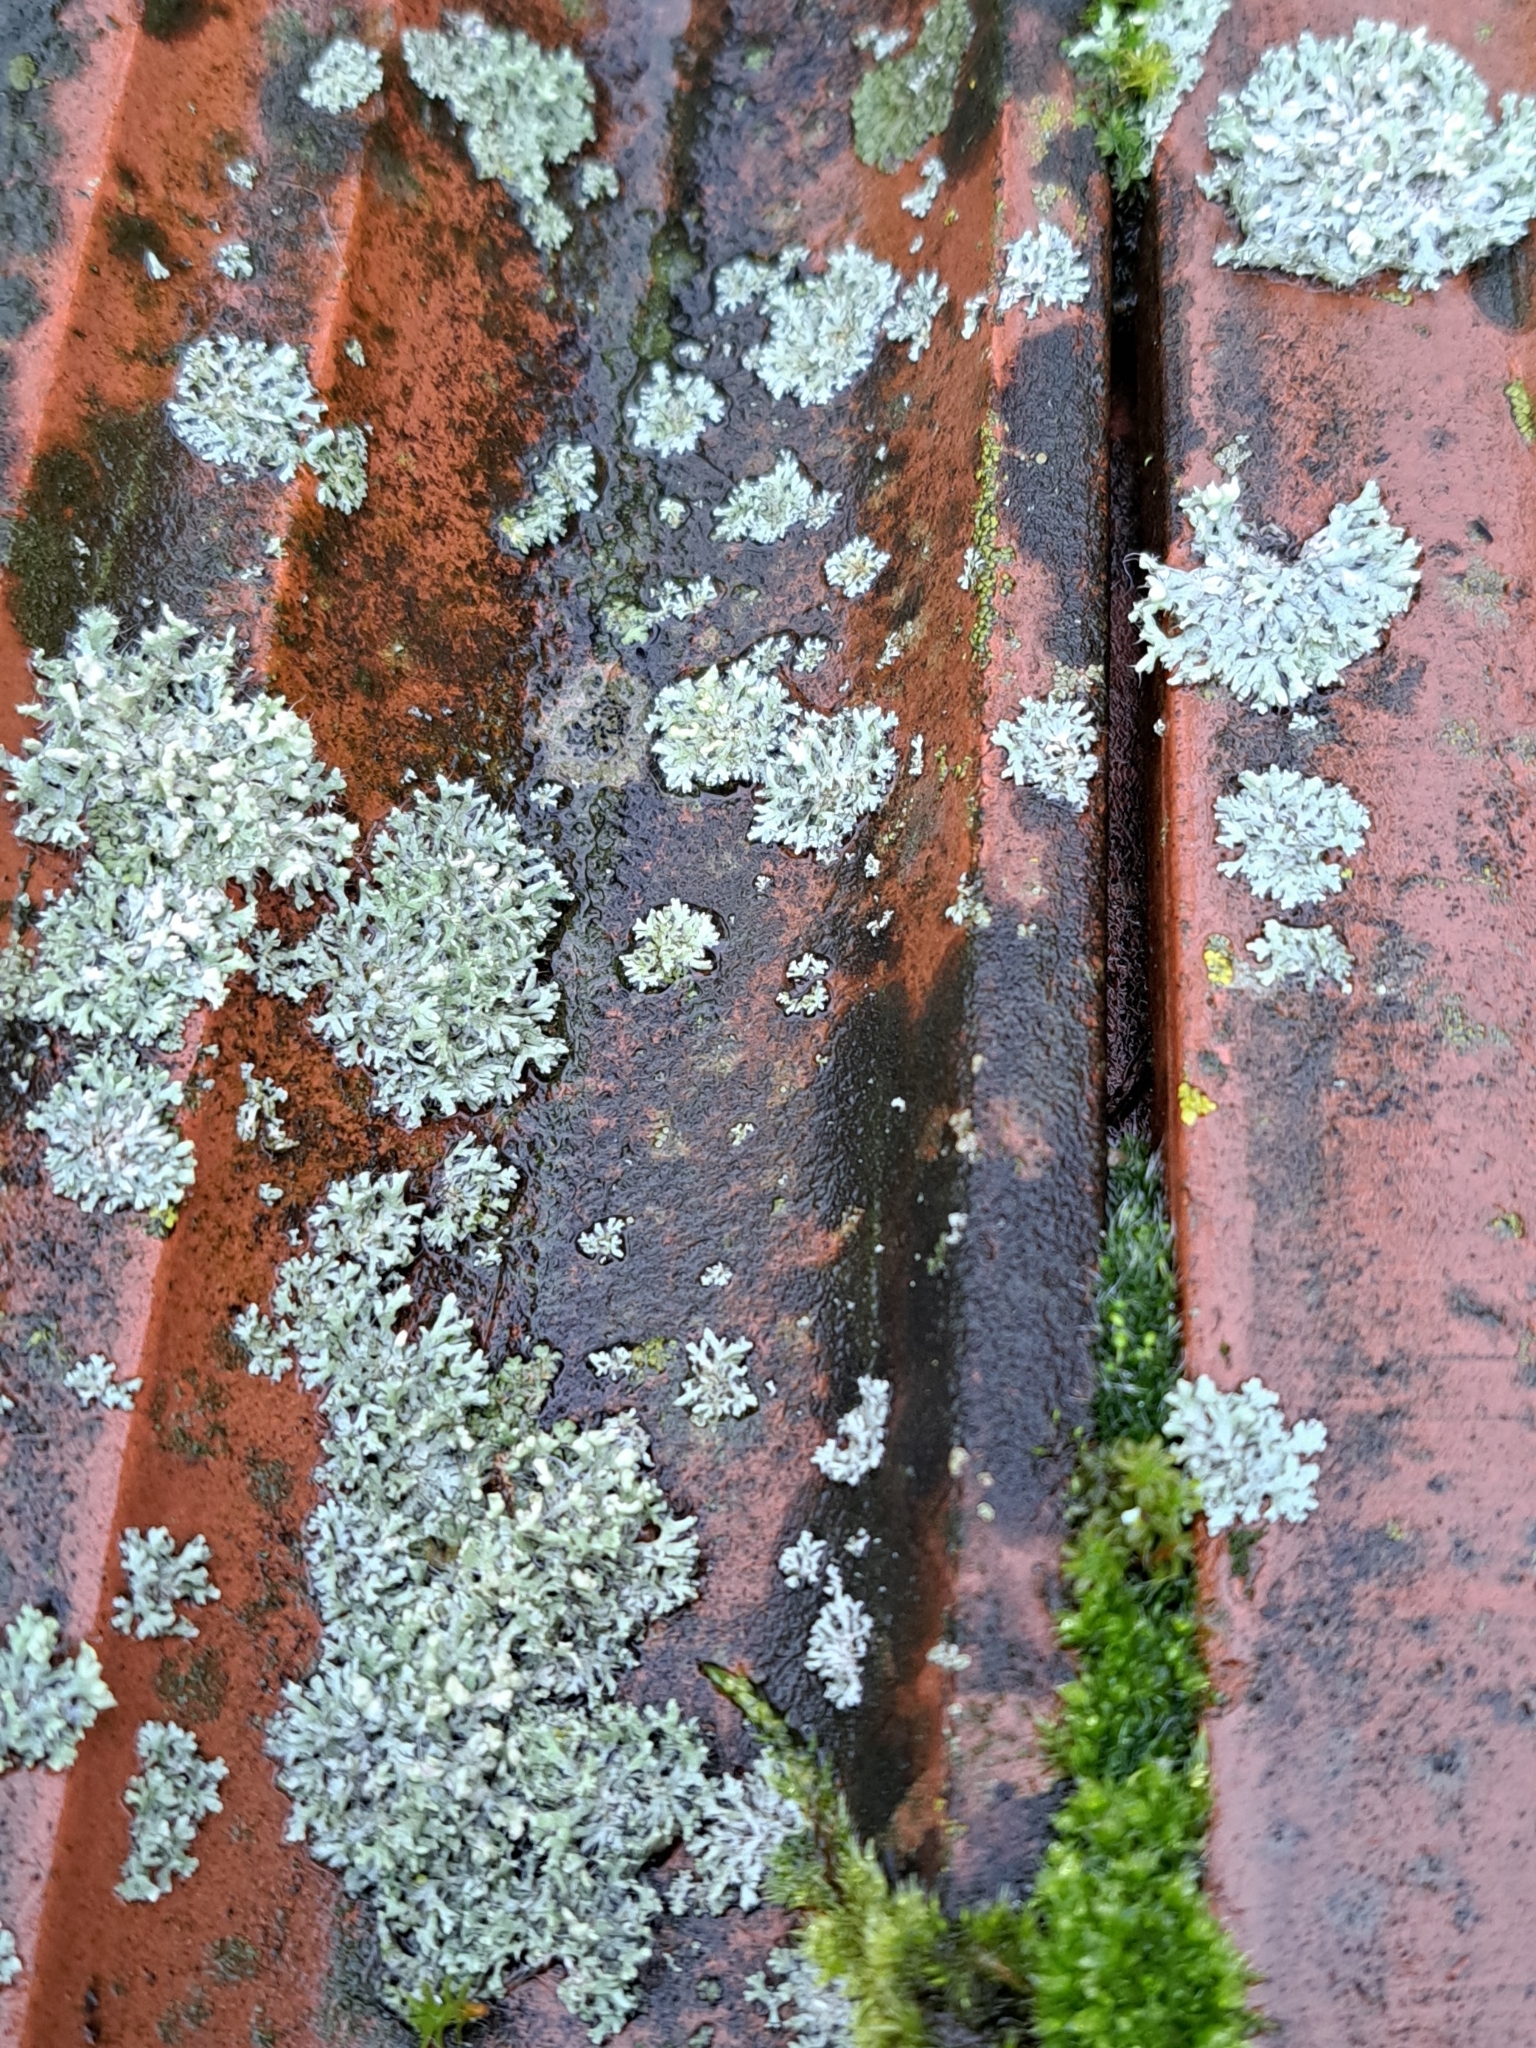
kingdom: Fungi
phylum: Ascomycota
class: Lecanoromycetes
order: Caliciales
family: Physciaceae
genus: Physcia
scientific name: Physcia adscendens
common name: Hooded rosette lichen
